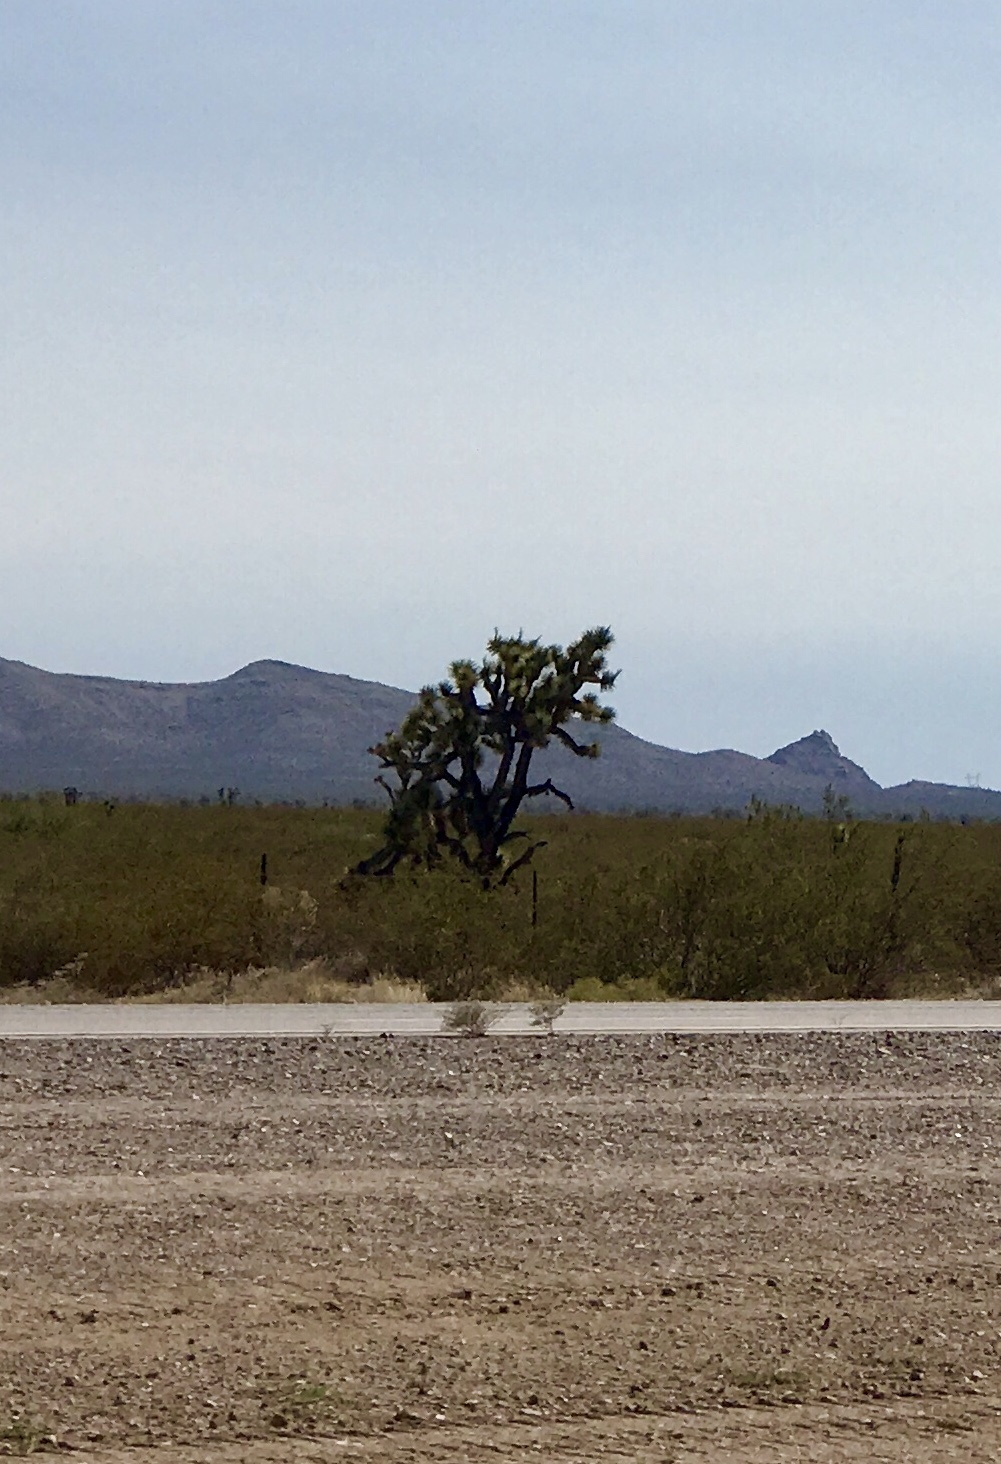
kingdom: Plantae
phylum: Tracheophyta
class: Liliopsida
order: Asparagales
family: Asparagaceae
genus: Yucca
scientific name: Yucca brevifolia
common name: Joshua tree
